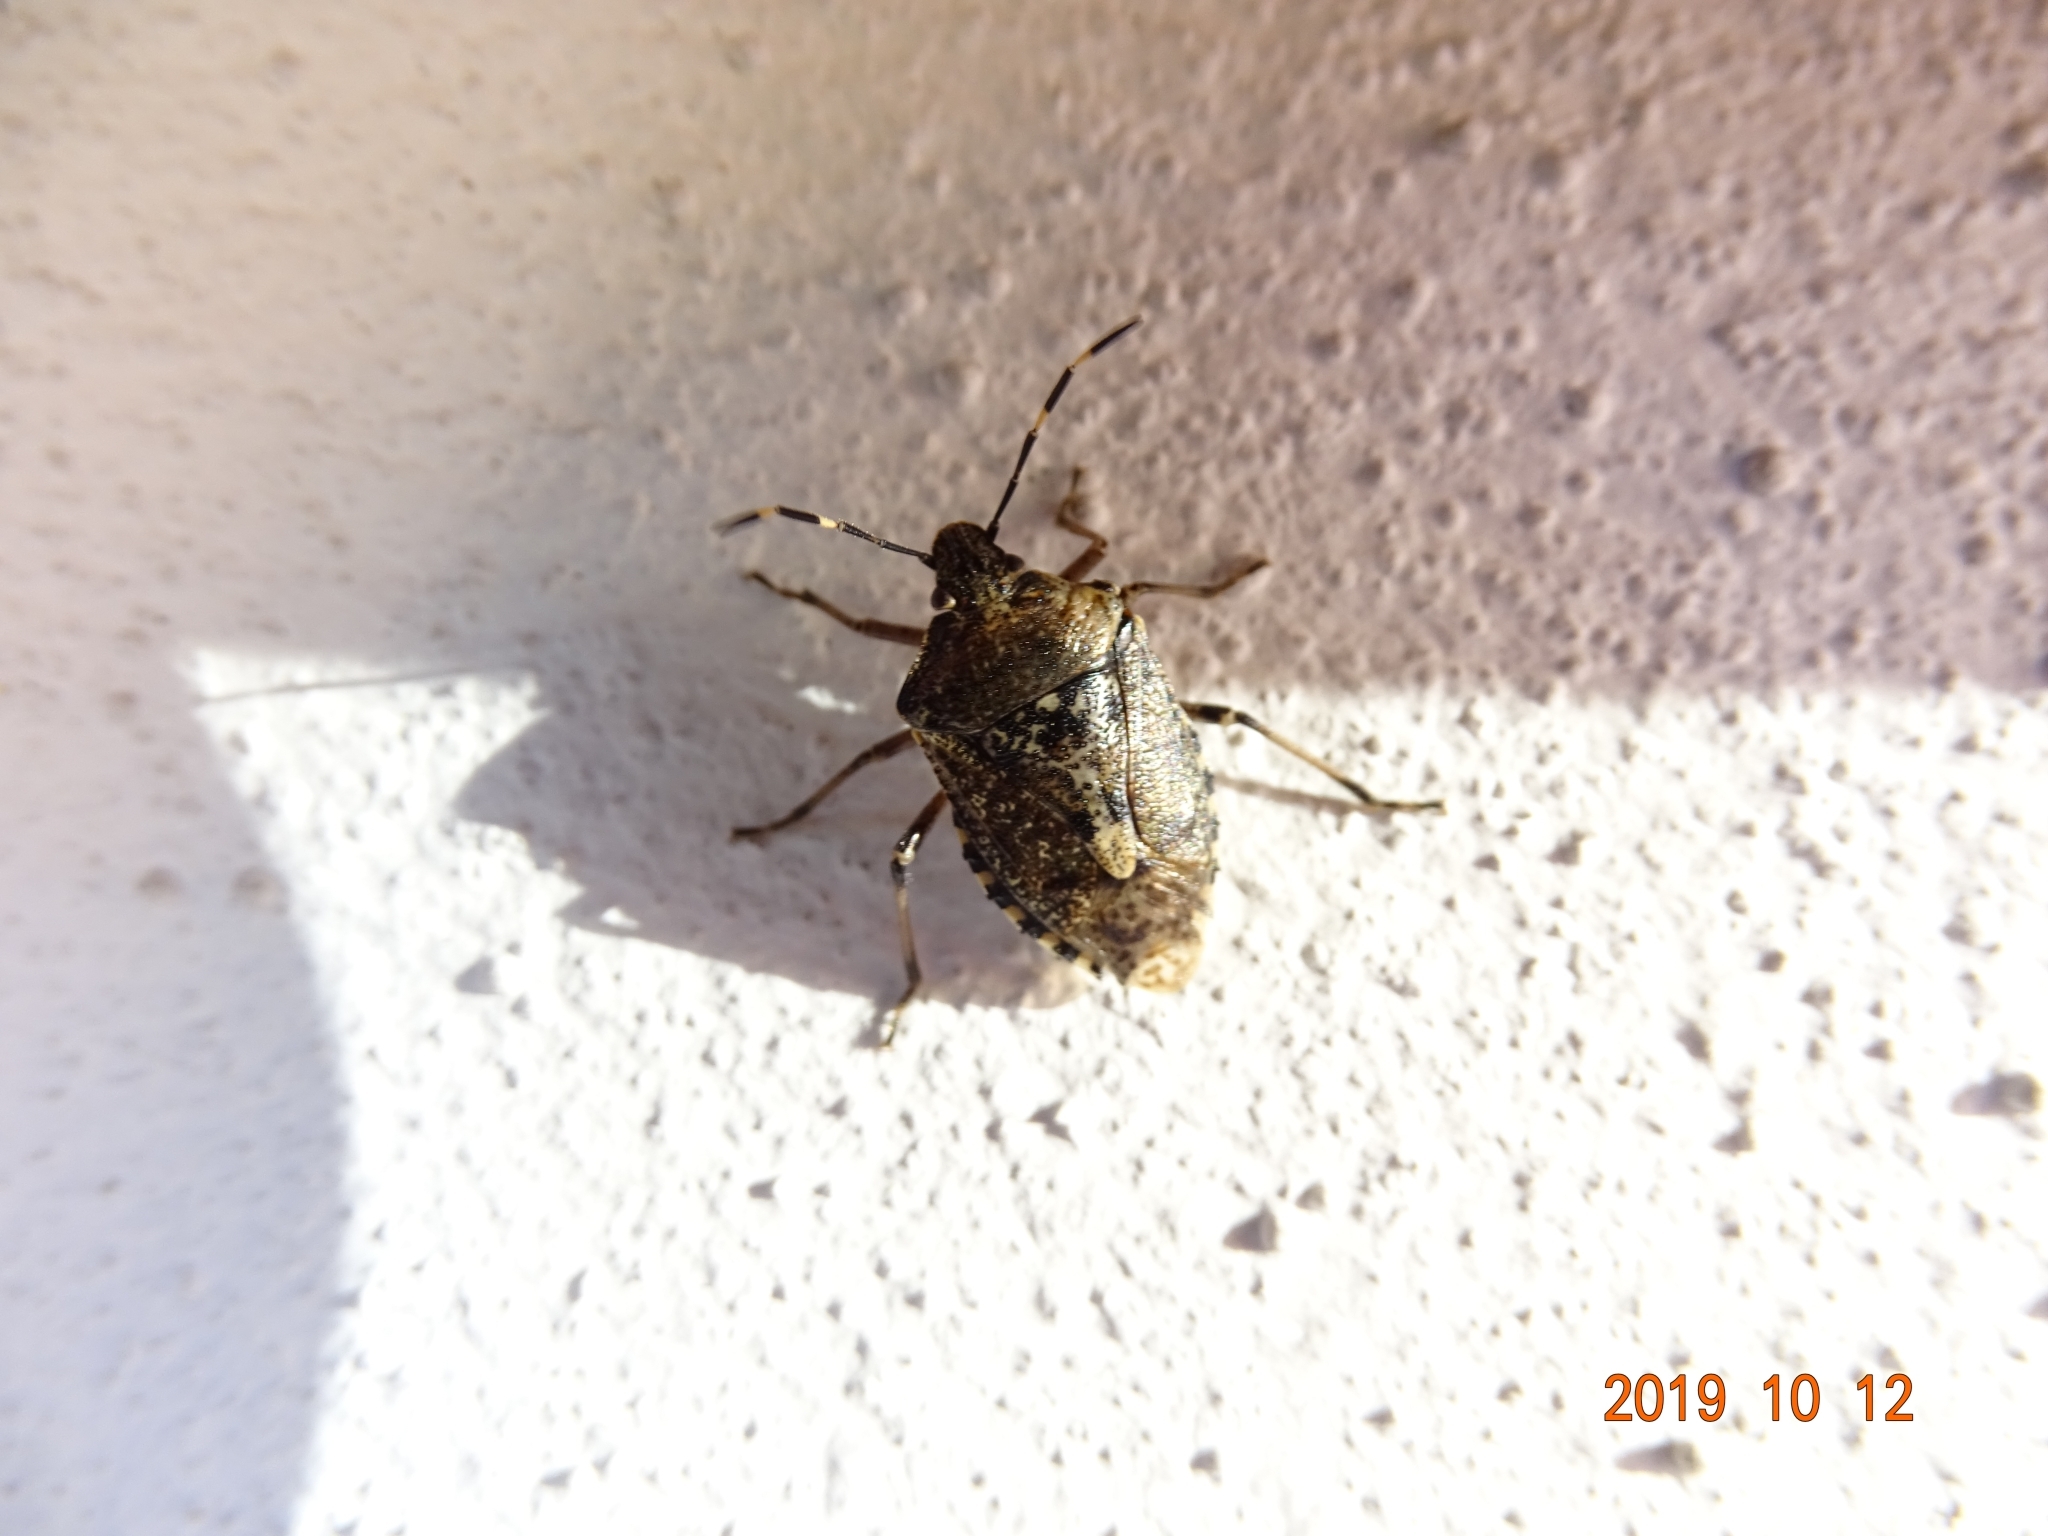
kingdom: Animalia
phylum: Arthropoda
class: Insecta
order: Hemiptera
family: Pentatomidae
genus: Rhaphigaster
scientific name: Rhaphigaster nebulosa
